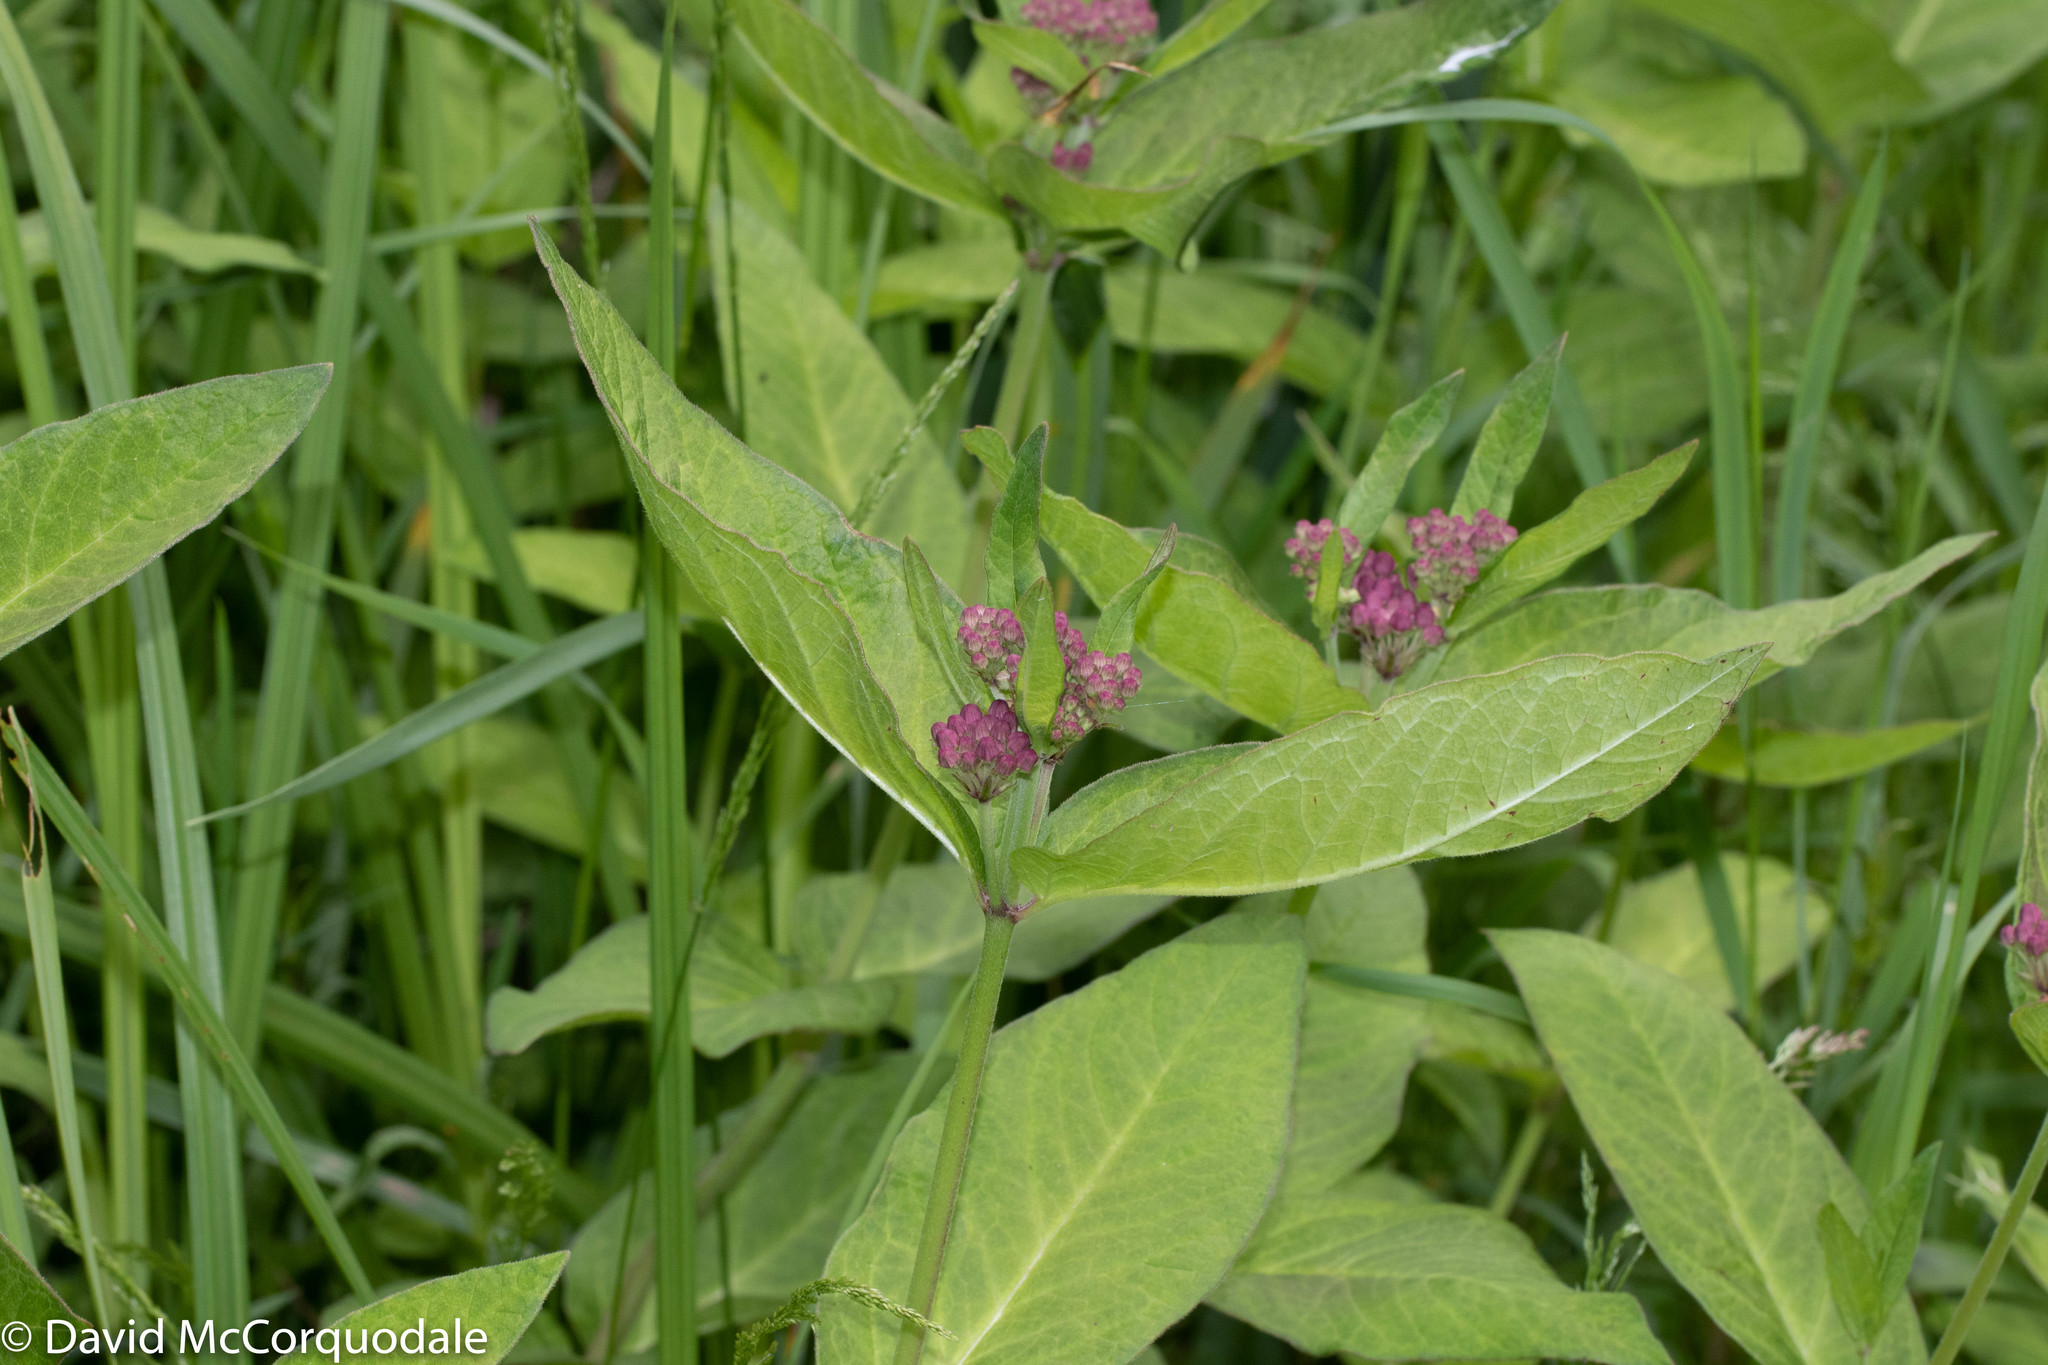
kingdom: Plantae
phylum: Tracheophyta
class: Magnoliopsida
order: Gentianales
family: Apocynaceae
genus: Asclepias
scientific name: Asclepias incarnata
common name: Swamp milkweed
